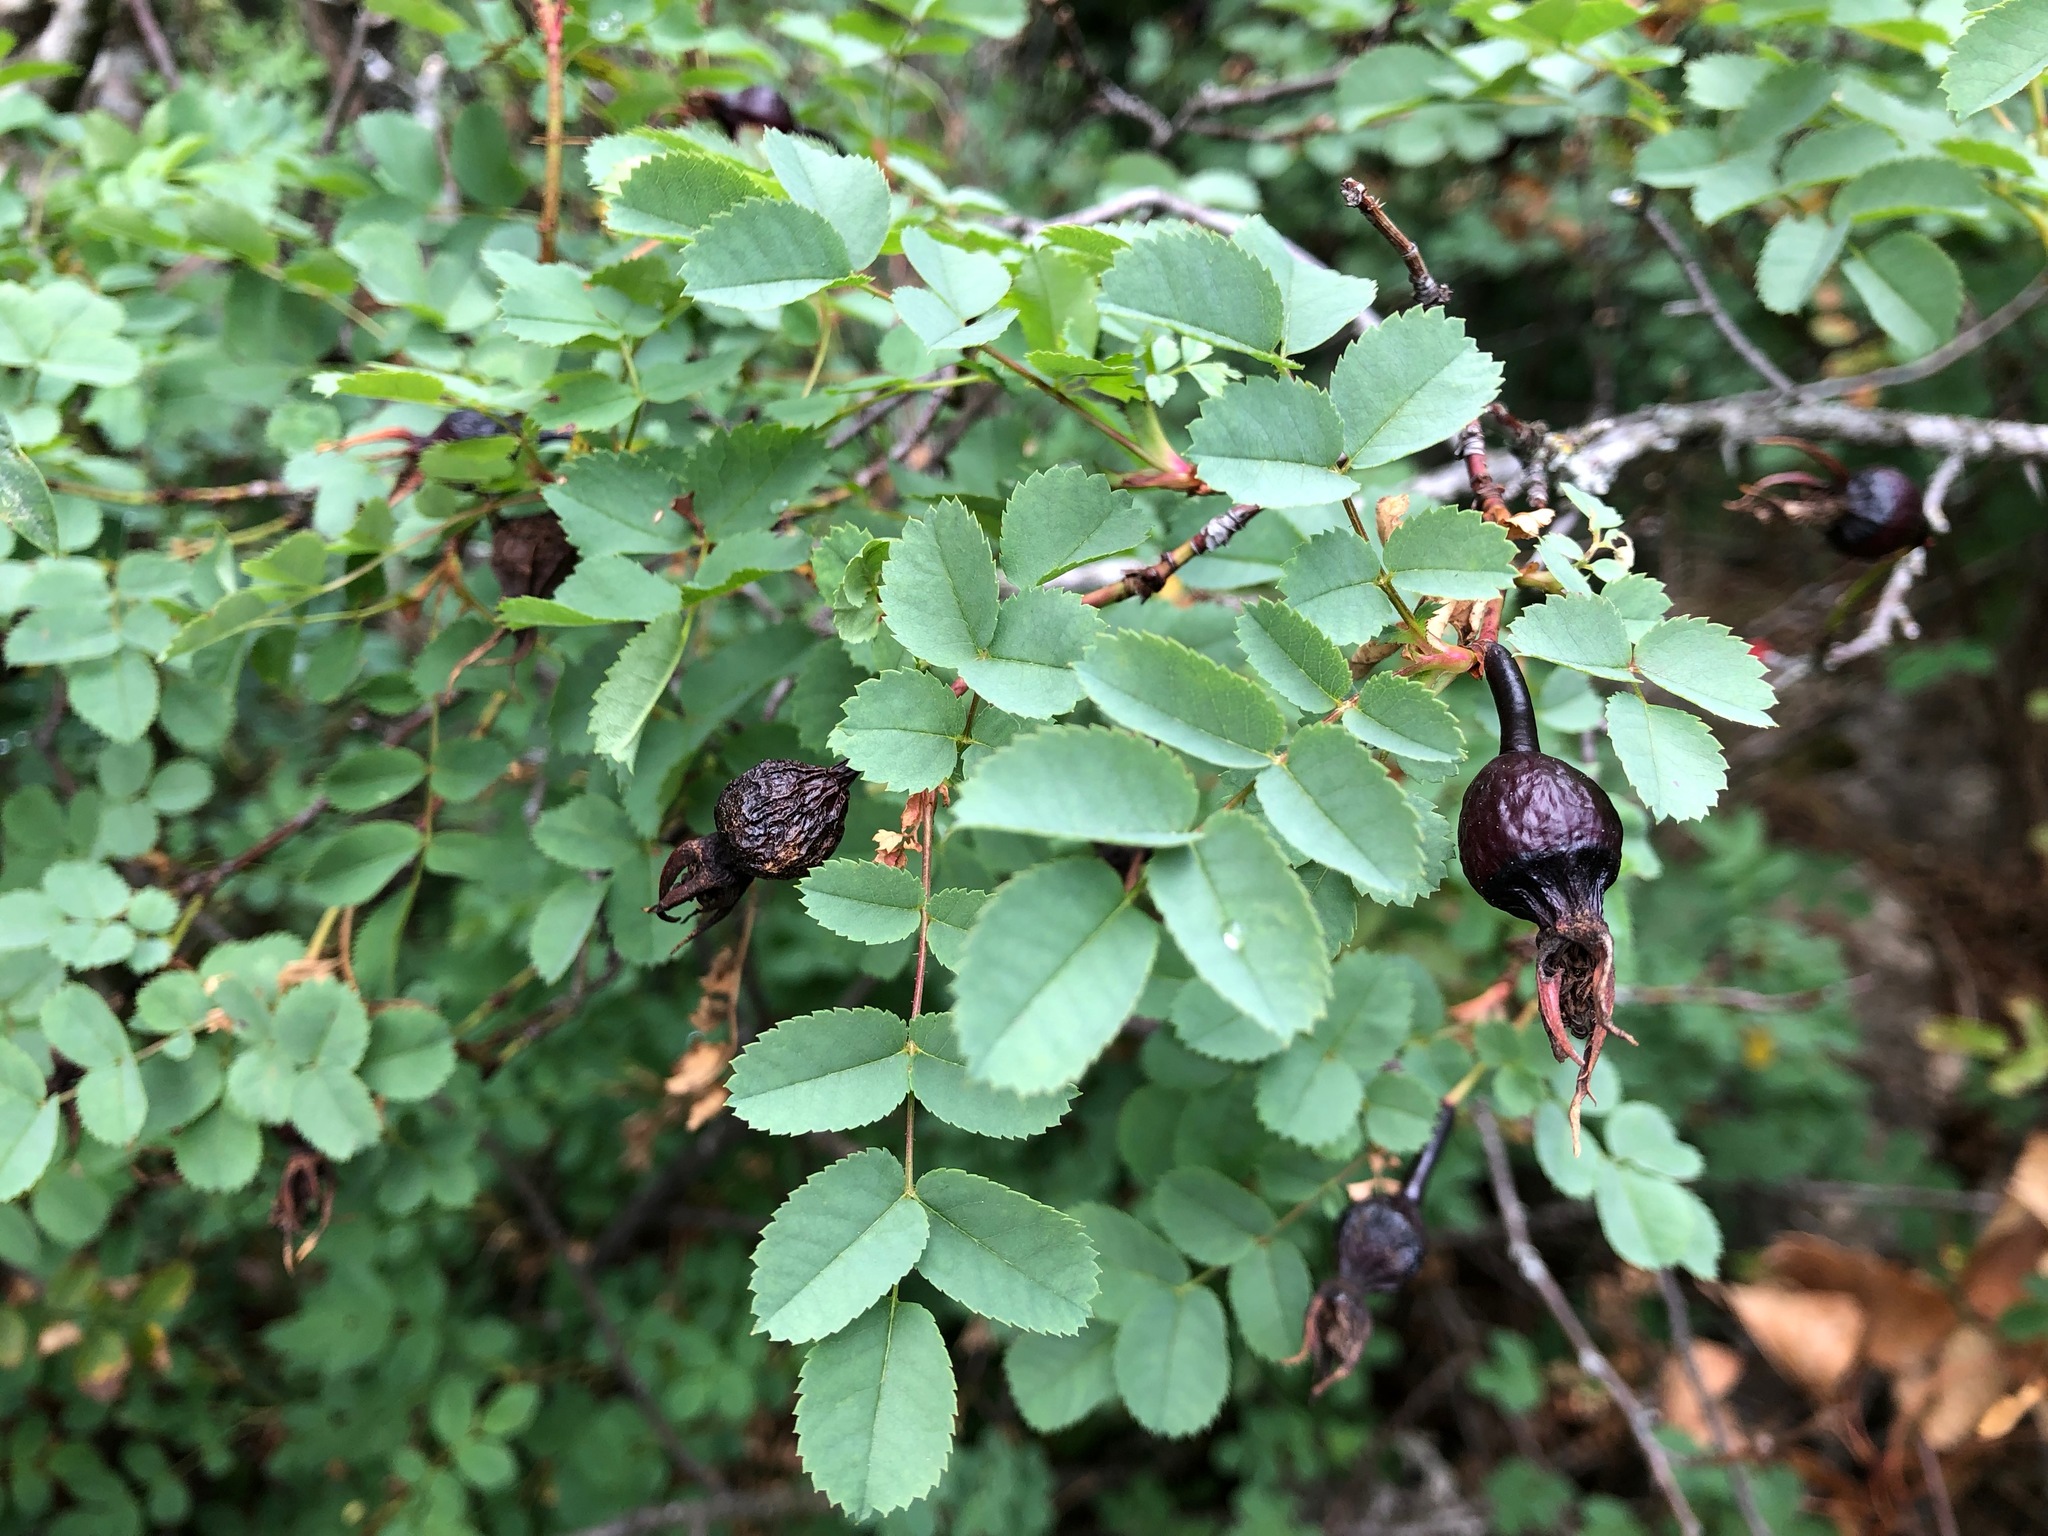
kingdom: Plantae
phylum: Tracheophyta
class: Magnoliopsida
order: Rosales
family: Rosaceae
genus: Rosa
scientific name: Rosa spinosissima
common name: Burnet rose
